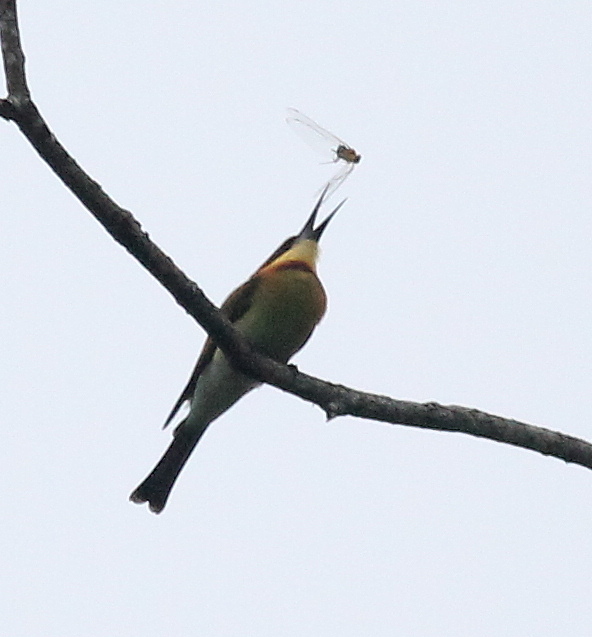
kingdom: Animalia
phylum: Chordata
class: Aves
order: Coraciiformes
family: Meropidae
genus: Merops
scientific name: Merops leschenaulti
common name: Chestnut-headed bee-eater
